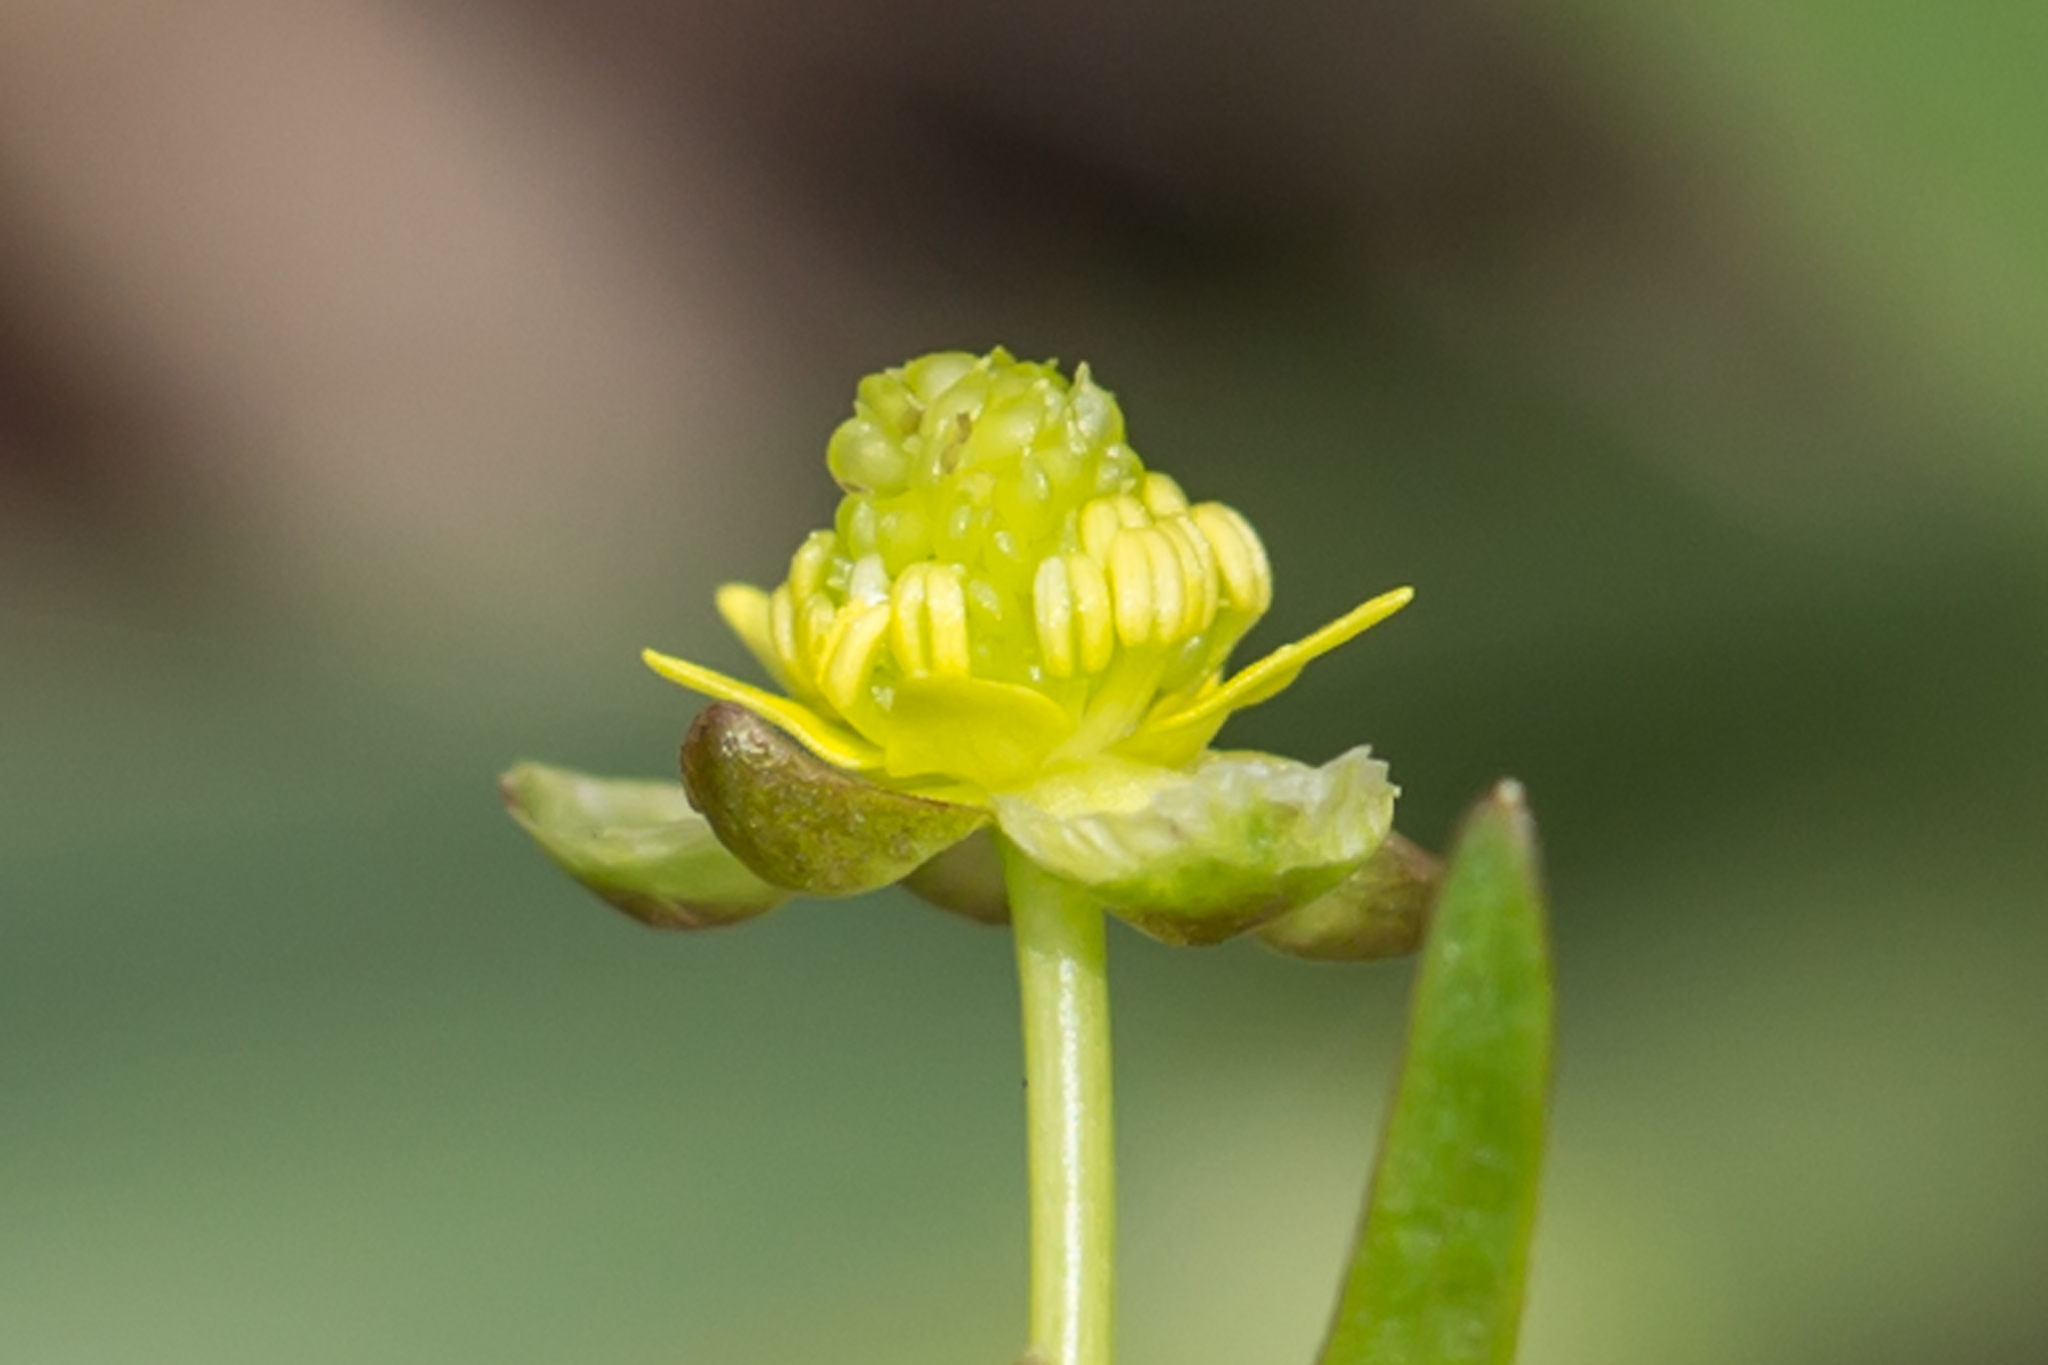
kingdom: Plantae
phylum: Tracheophyta
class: Magnoliopsida
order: Ranunculales
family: Ranunculaceae
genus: Ranunculus
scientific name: Ranunculus abortivus
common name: Early wood buttercup
